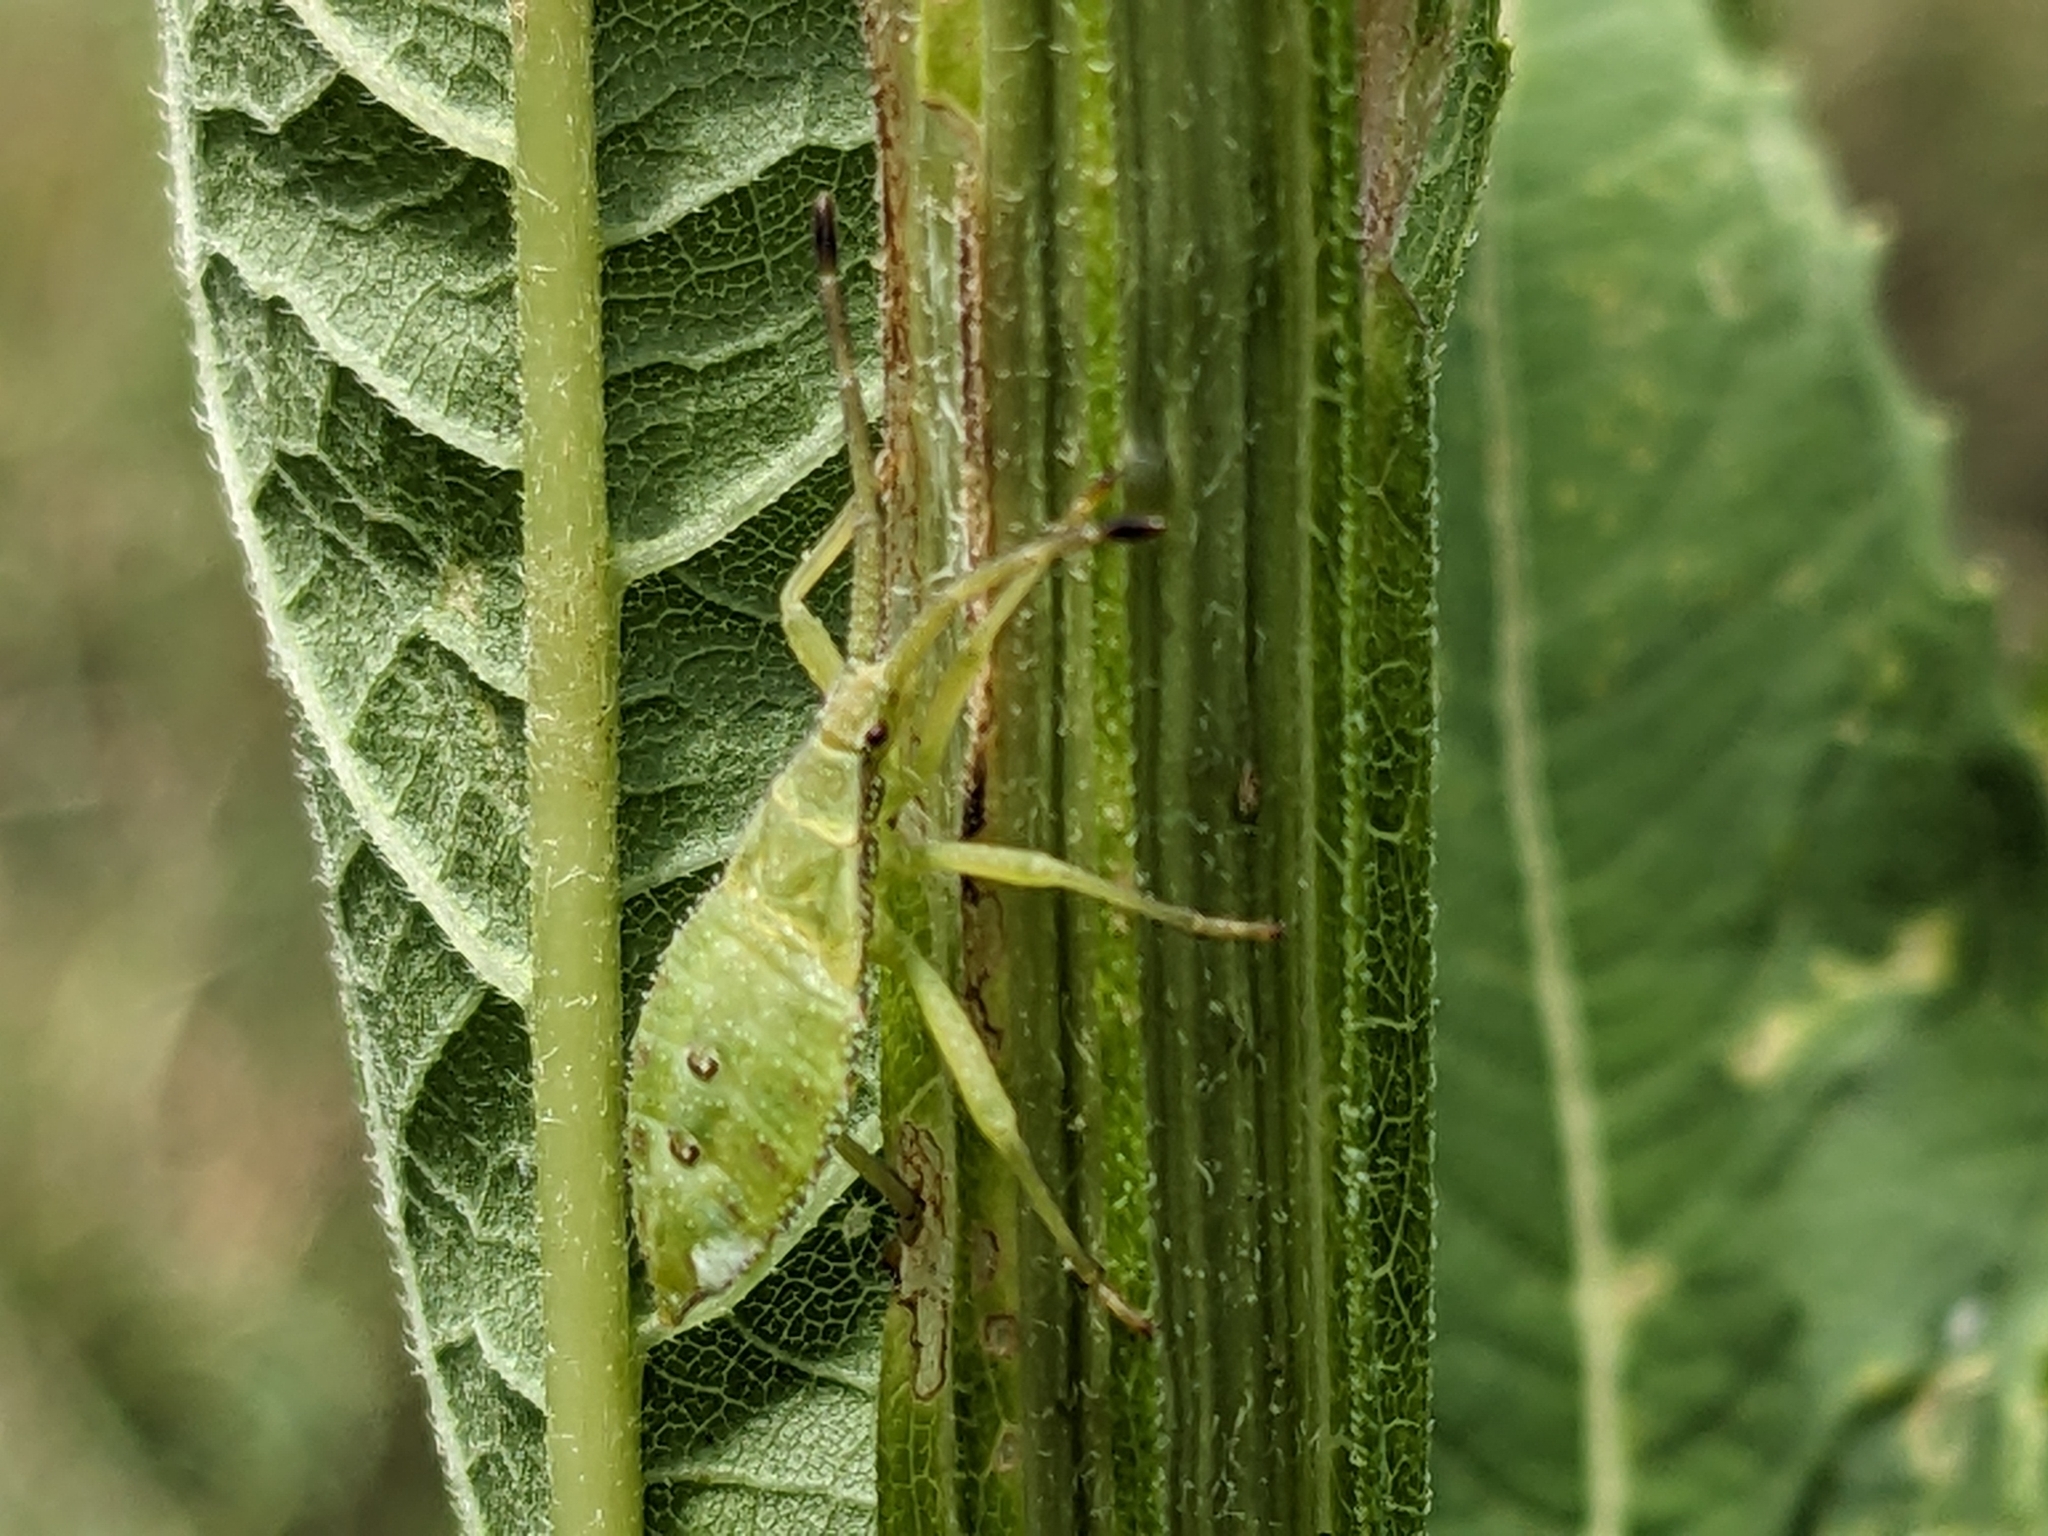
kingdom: Animalia
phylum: Arthropoda
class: Insecta
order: Hemiptera
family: Coreidae
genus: Piezogaster
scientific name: Piezogaster calcarator
